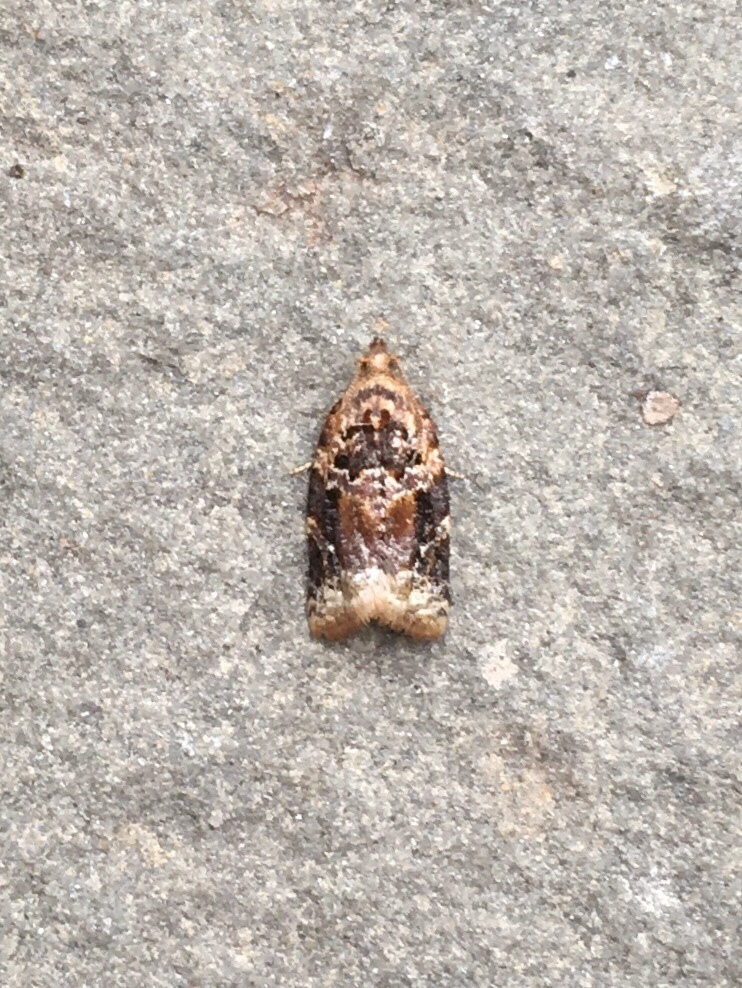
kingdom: Animalia
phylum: Arthropoda
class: Insecta
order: Lepidoptera
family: Tortricidae
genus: Argyrotaenia
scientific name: Argyrotaenia velutinana
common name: Red-banded leafroller moth
